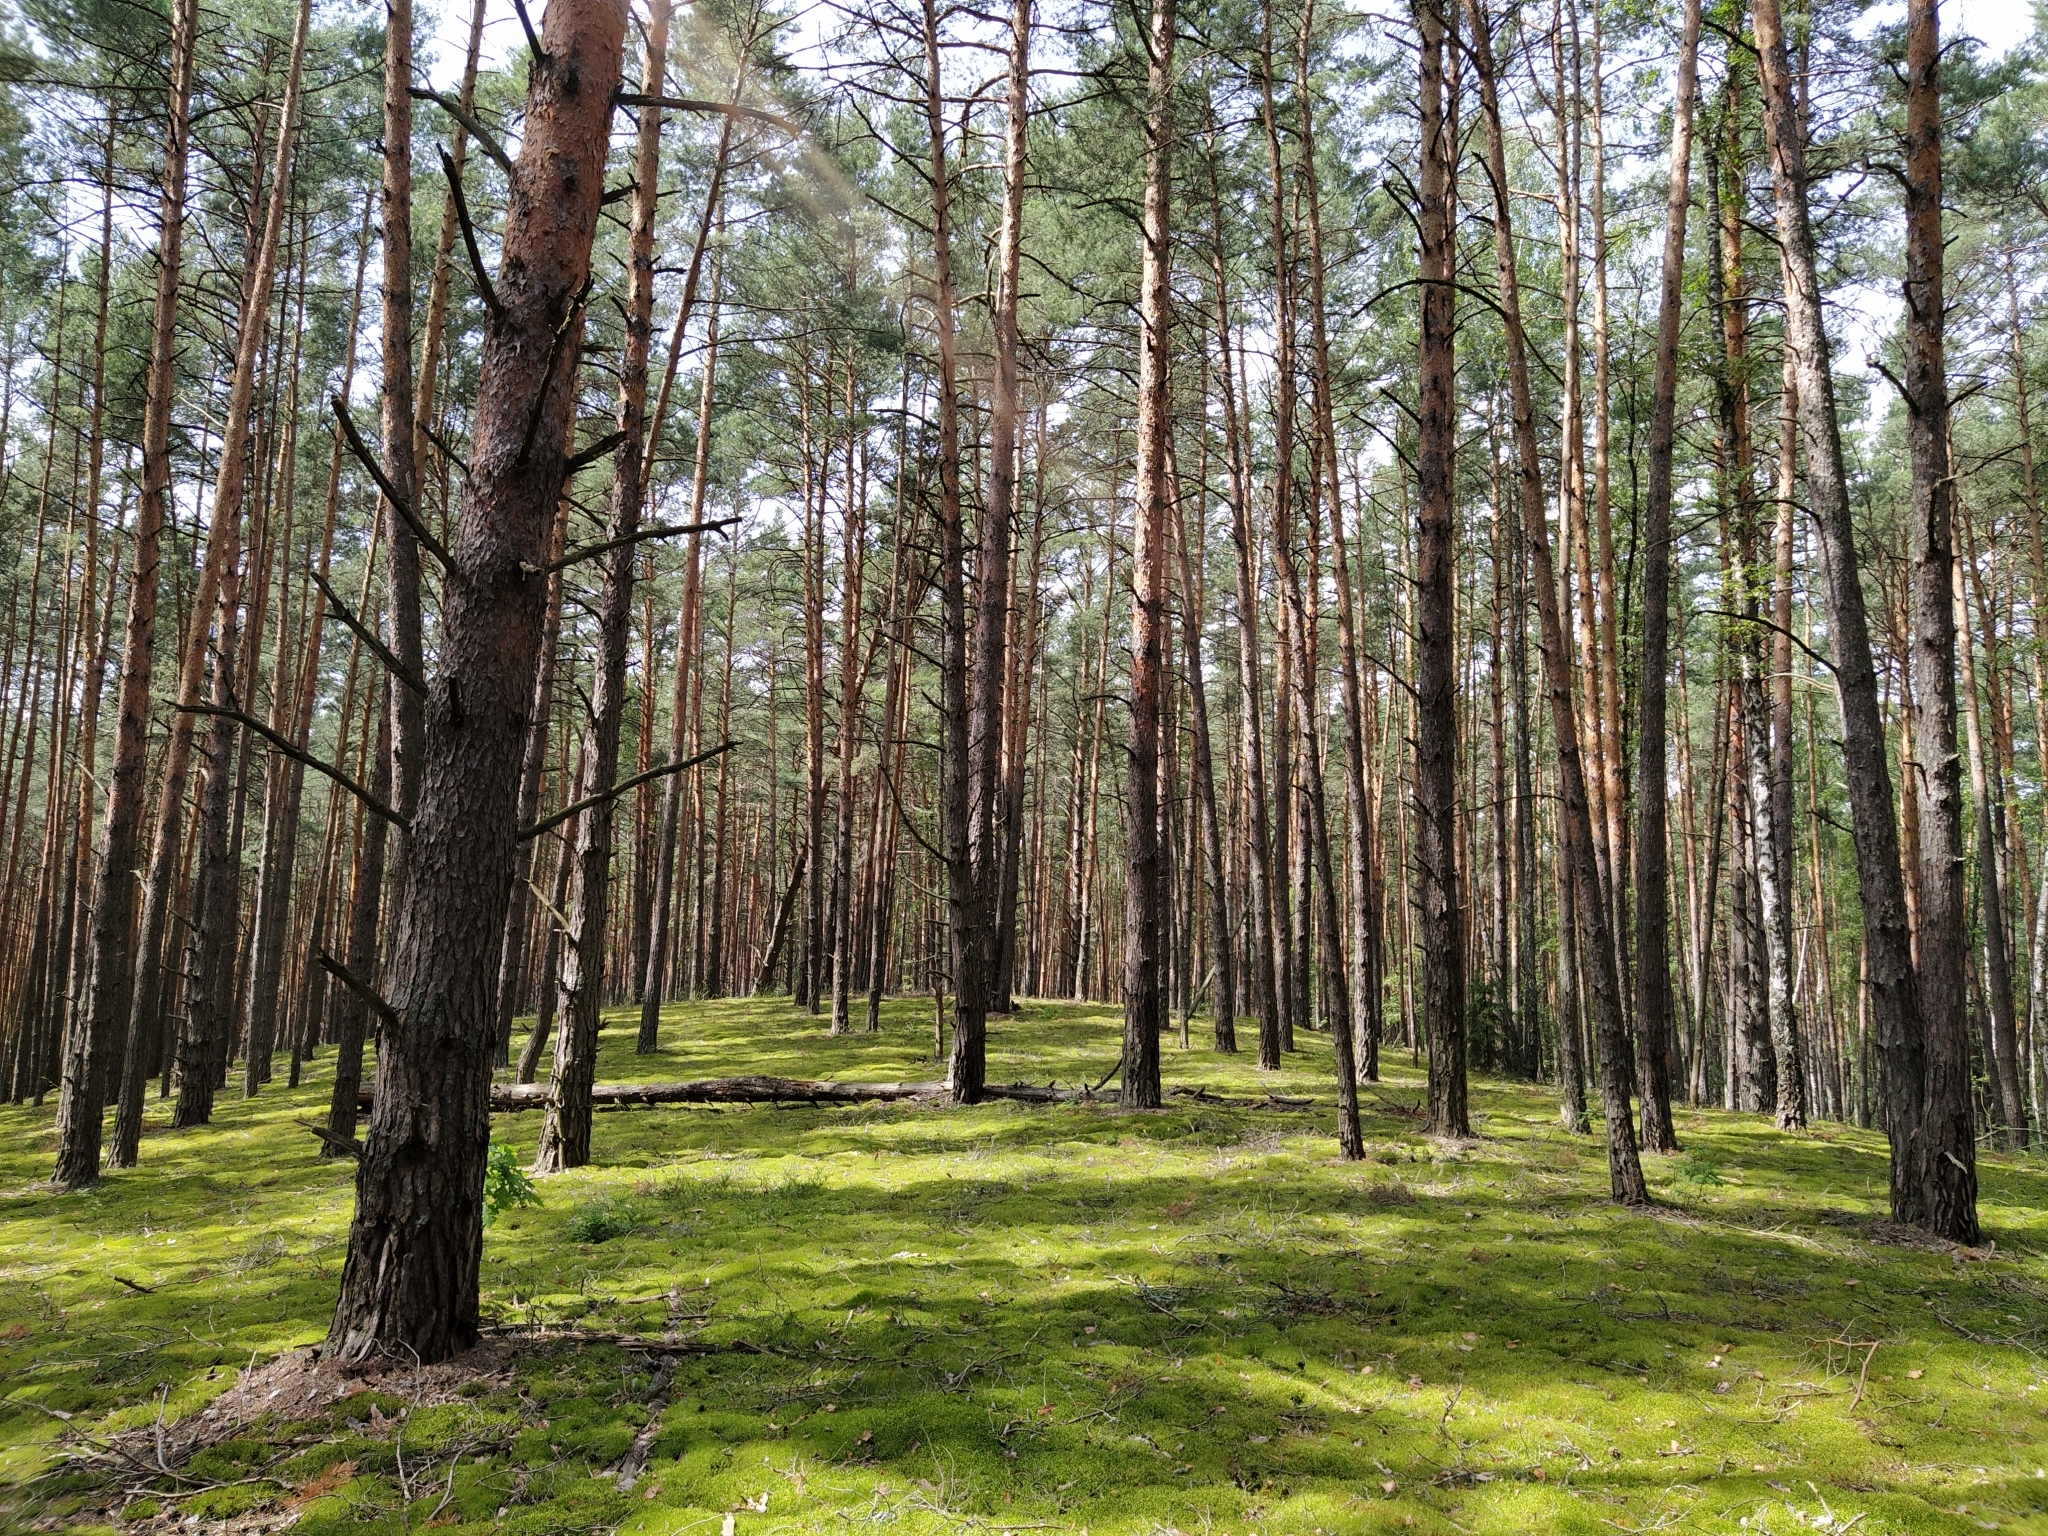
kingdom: Plantae
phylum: Tracheophyta
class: Pinopsida
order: Pinales
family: Pinaceae
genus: Pinus
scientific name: Pinus sylvestris
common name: Scots pine
